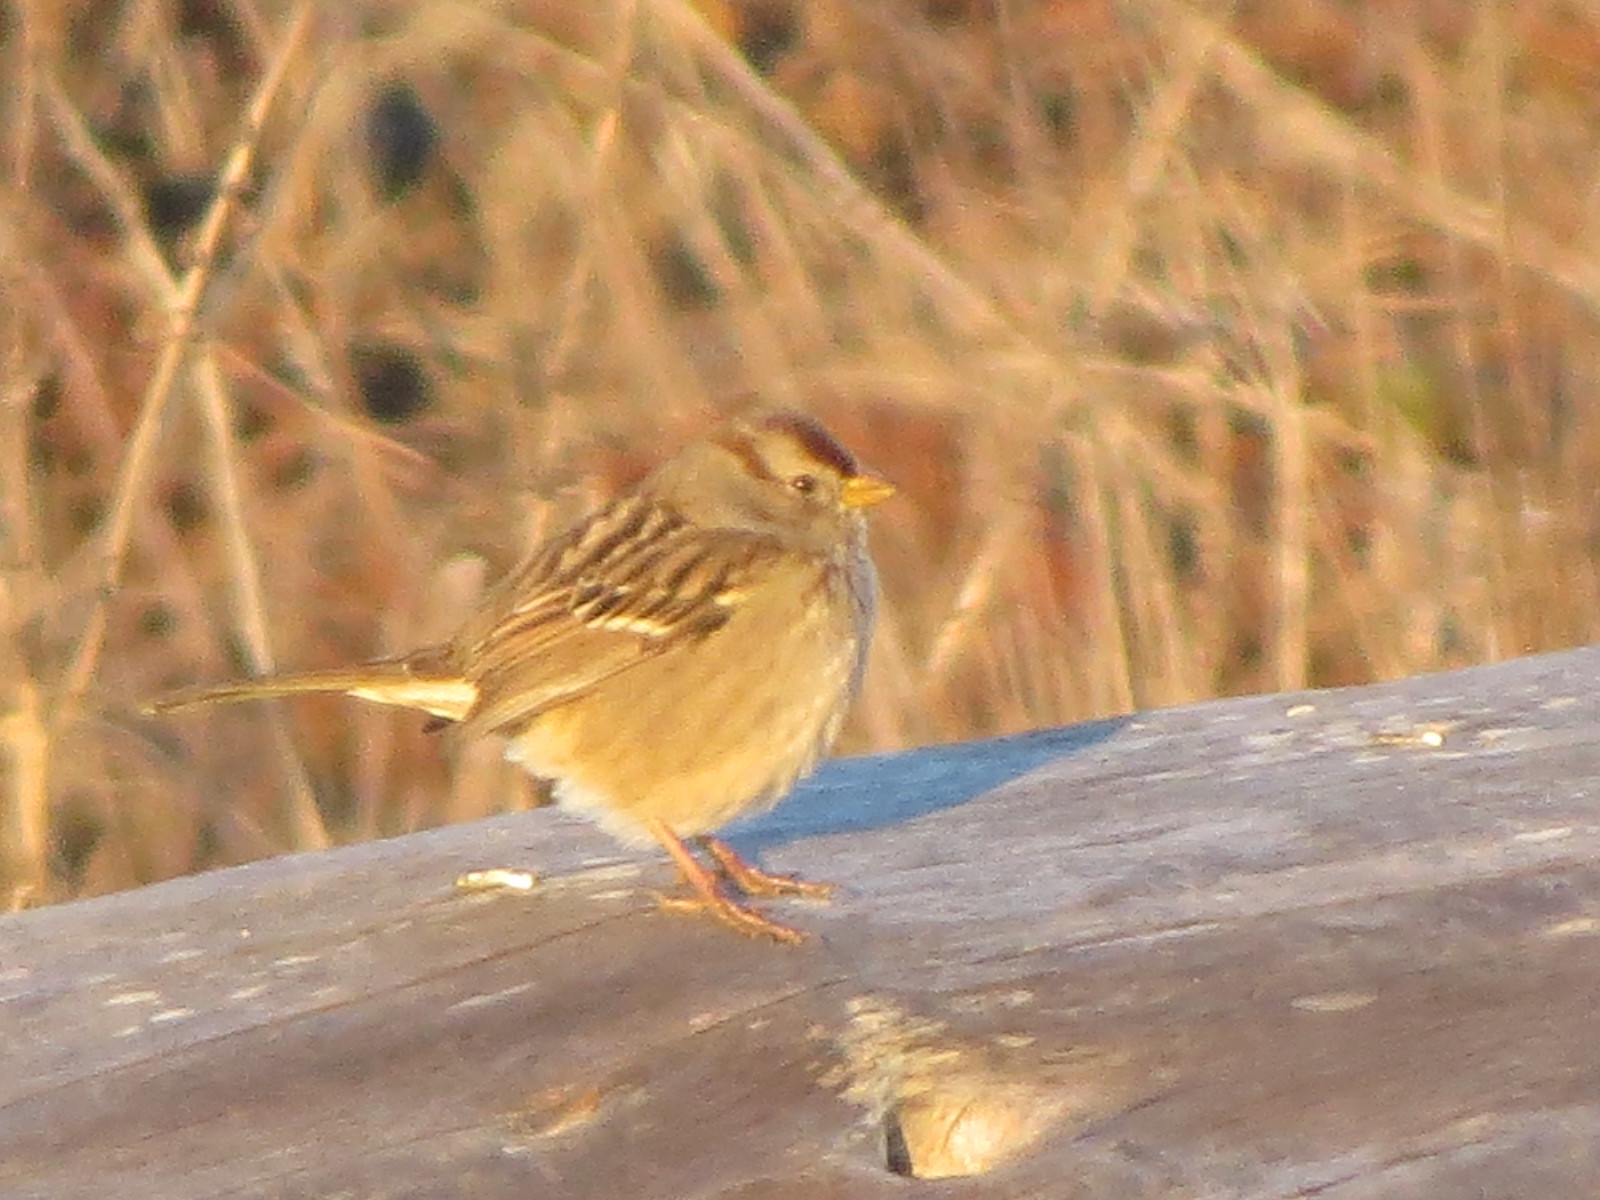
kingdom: Animalia
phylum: Chordata
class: Aves
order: Passeriformes
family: Passerellidae
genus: Zonotrichia
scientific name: Zonotrichia leucophrys
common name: White-crowned sparrow
